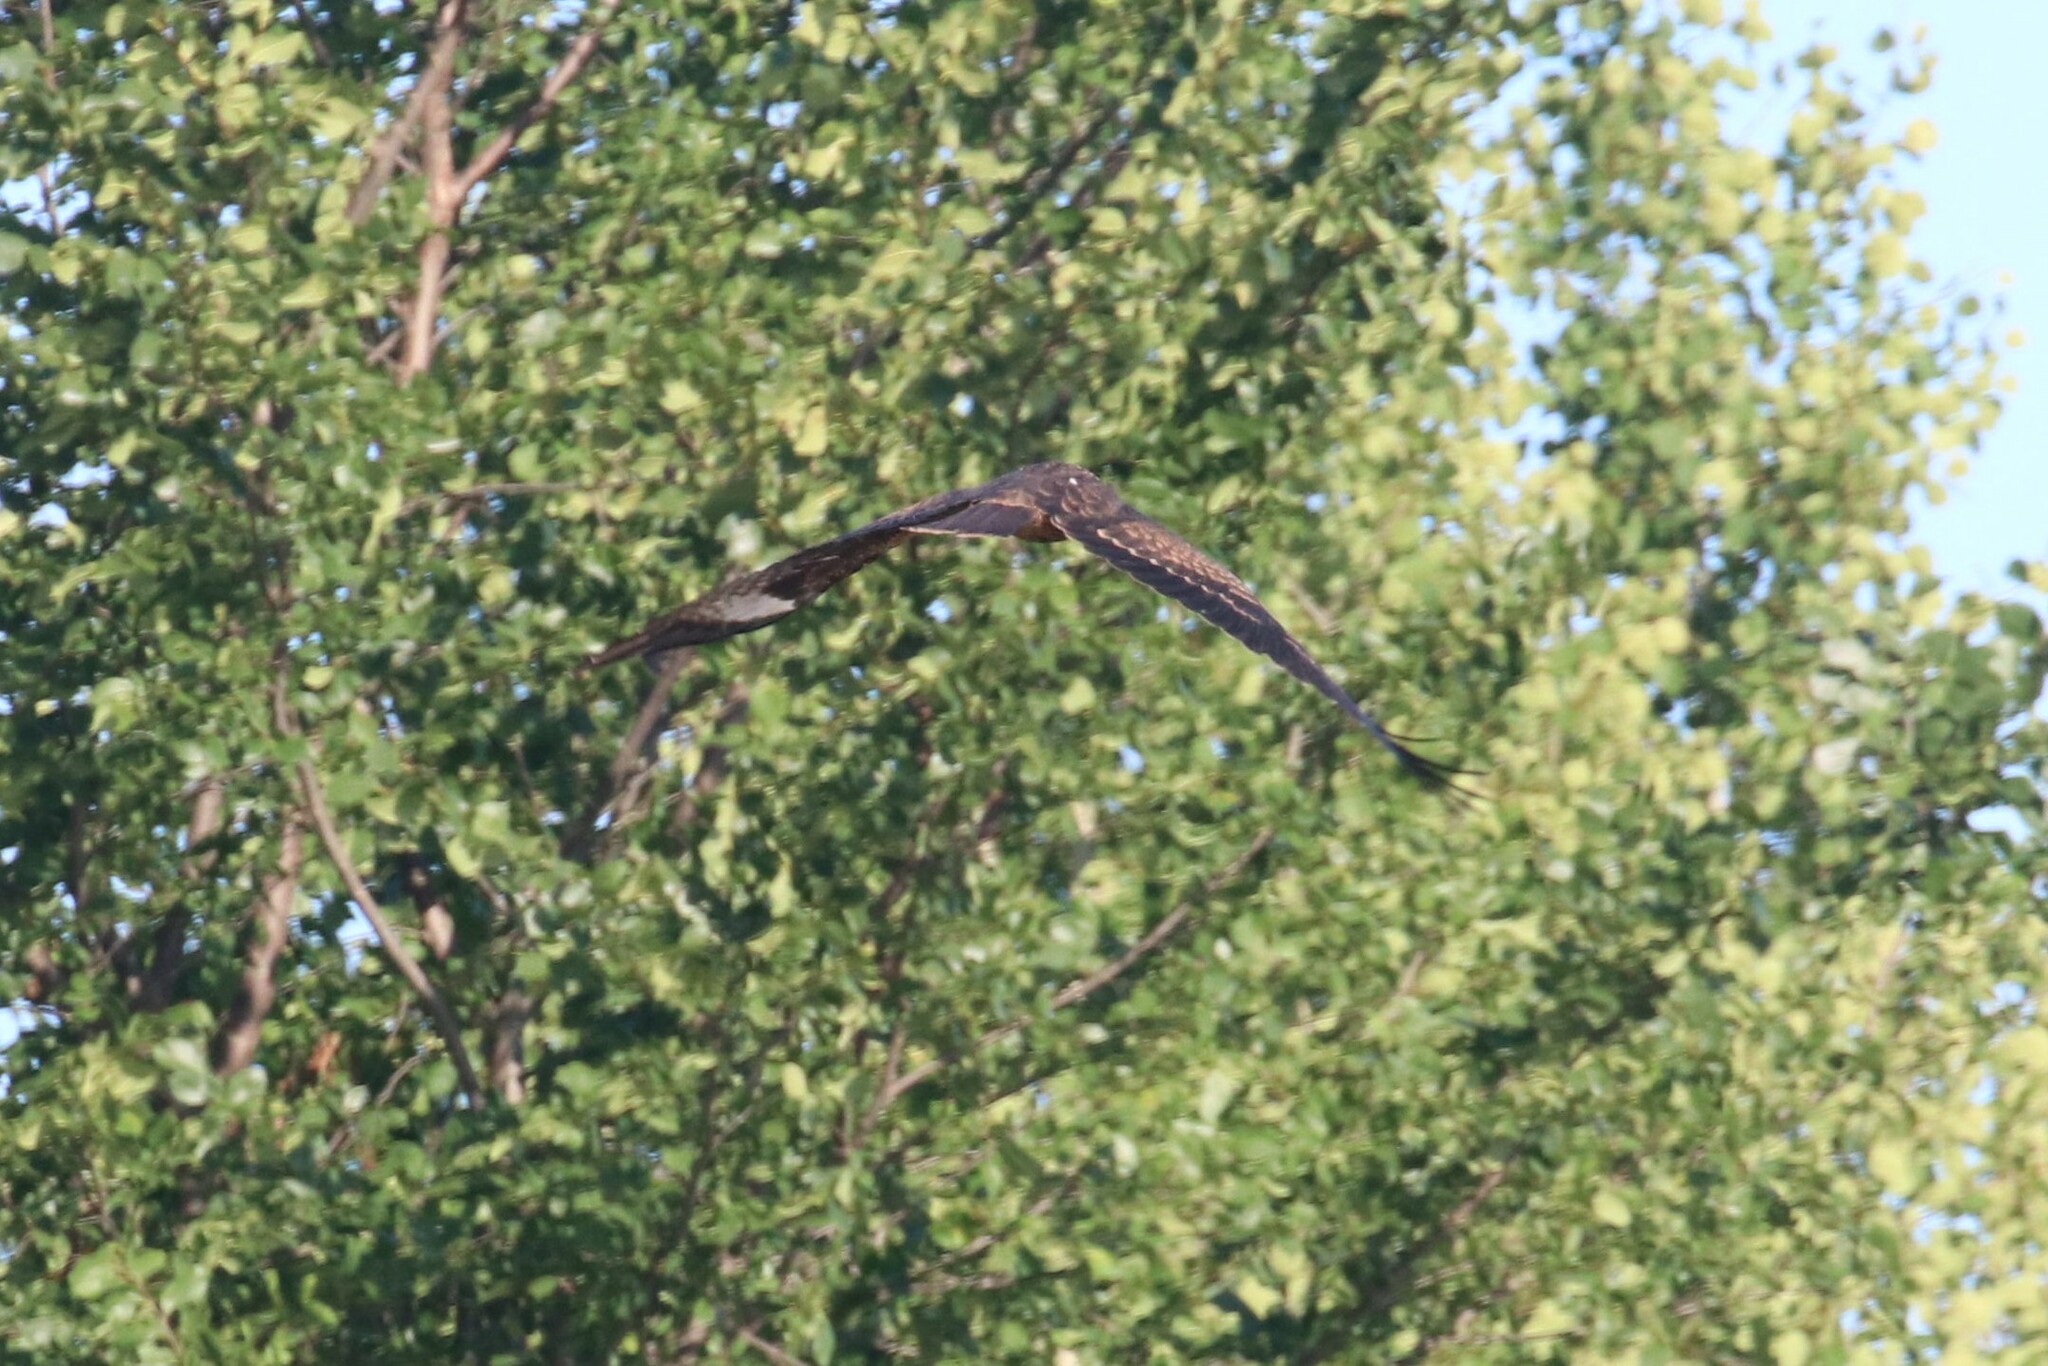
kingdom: Animalia
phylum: Chordata
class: Aves
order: Accipitriformes
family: Accipitridae
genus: Milvus
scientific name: Milvus migrans
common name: Black kite
